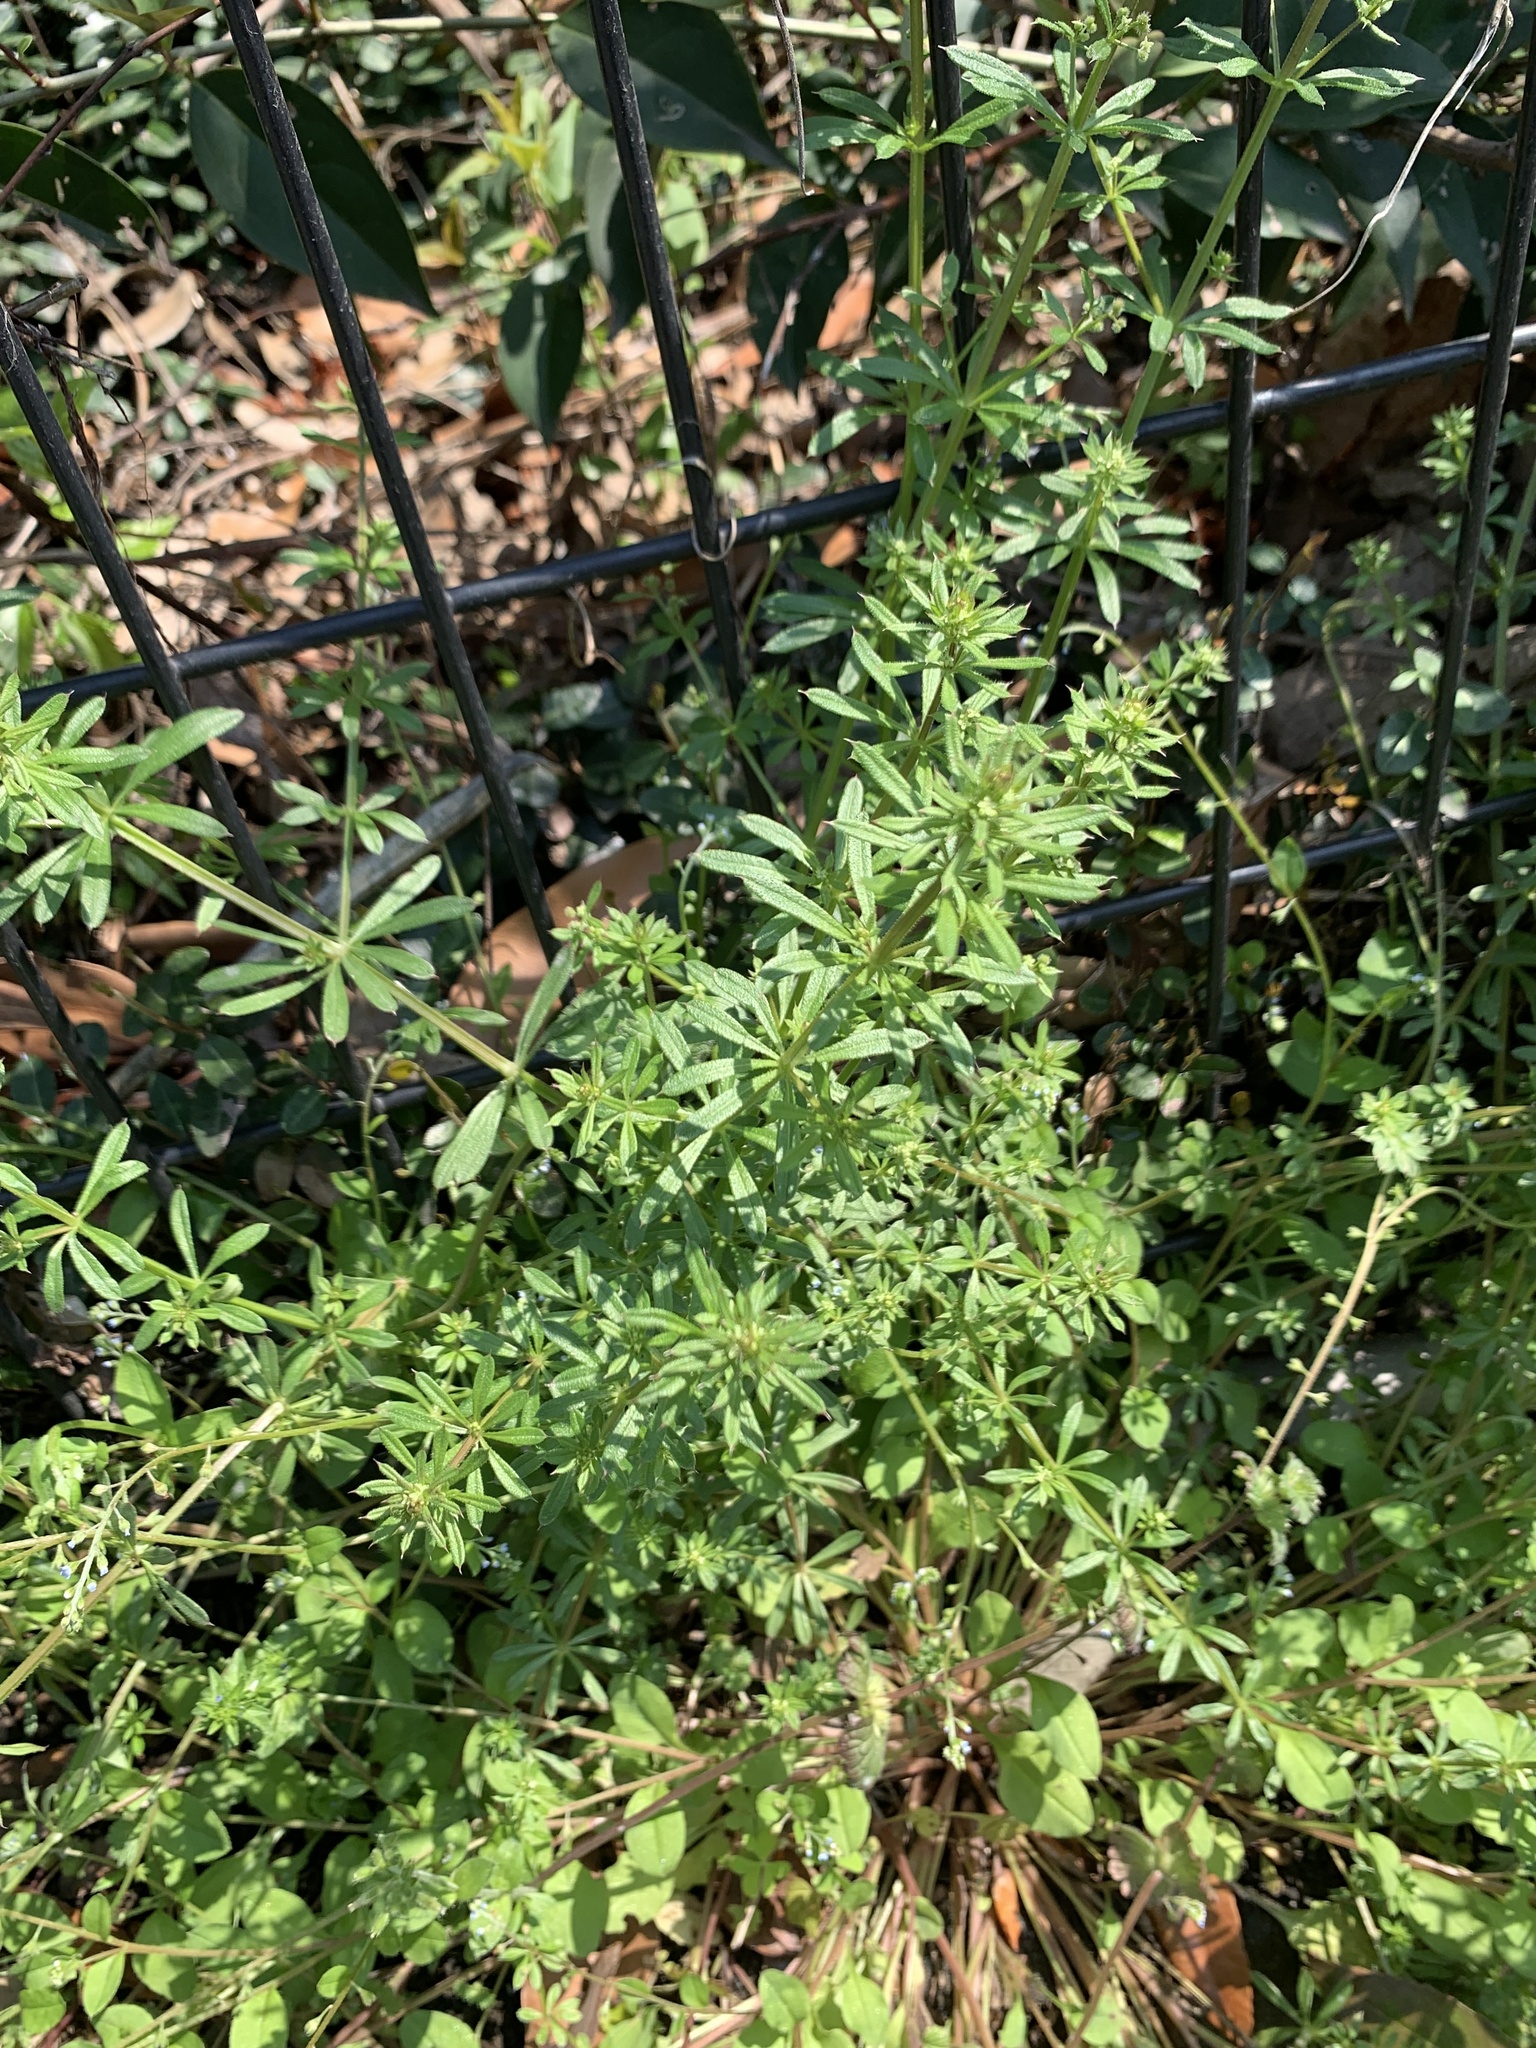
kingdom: Plantae
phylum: Tracheophyta
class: Magnoliopsida
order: Gentianales
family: Rubiaceae
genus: Galium
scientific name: Galium
